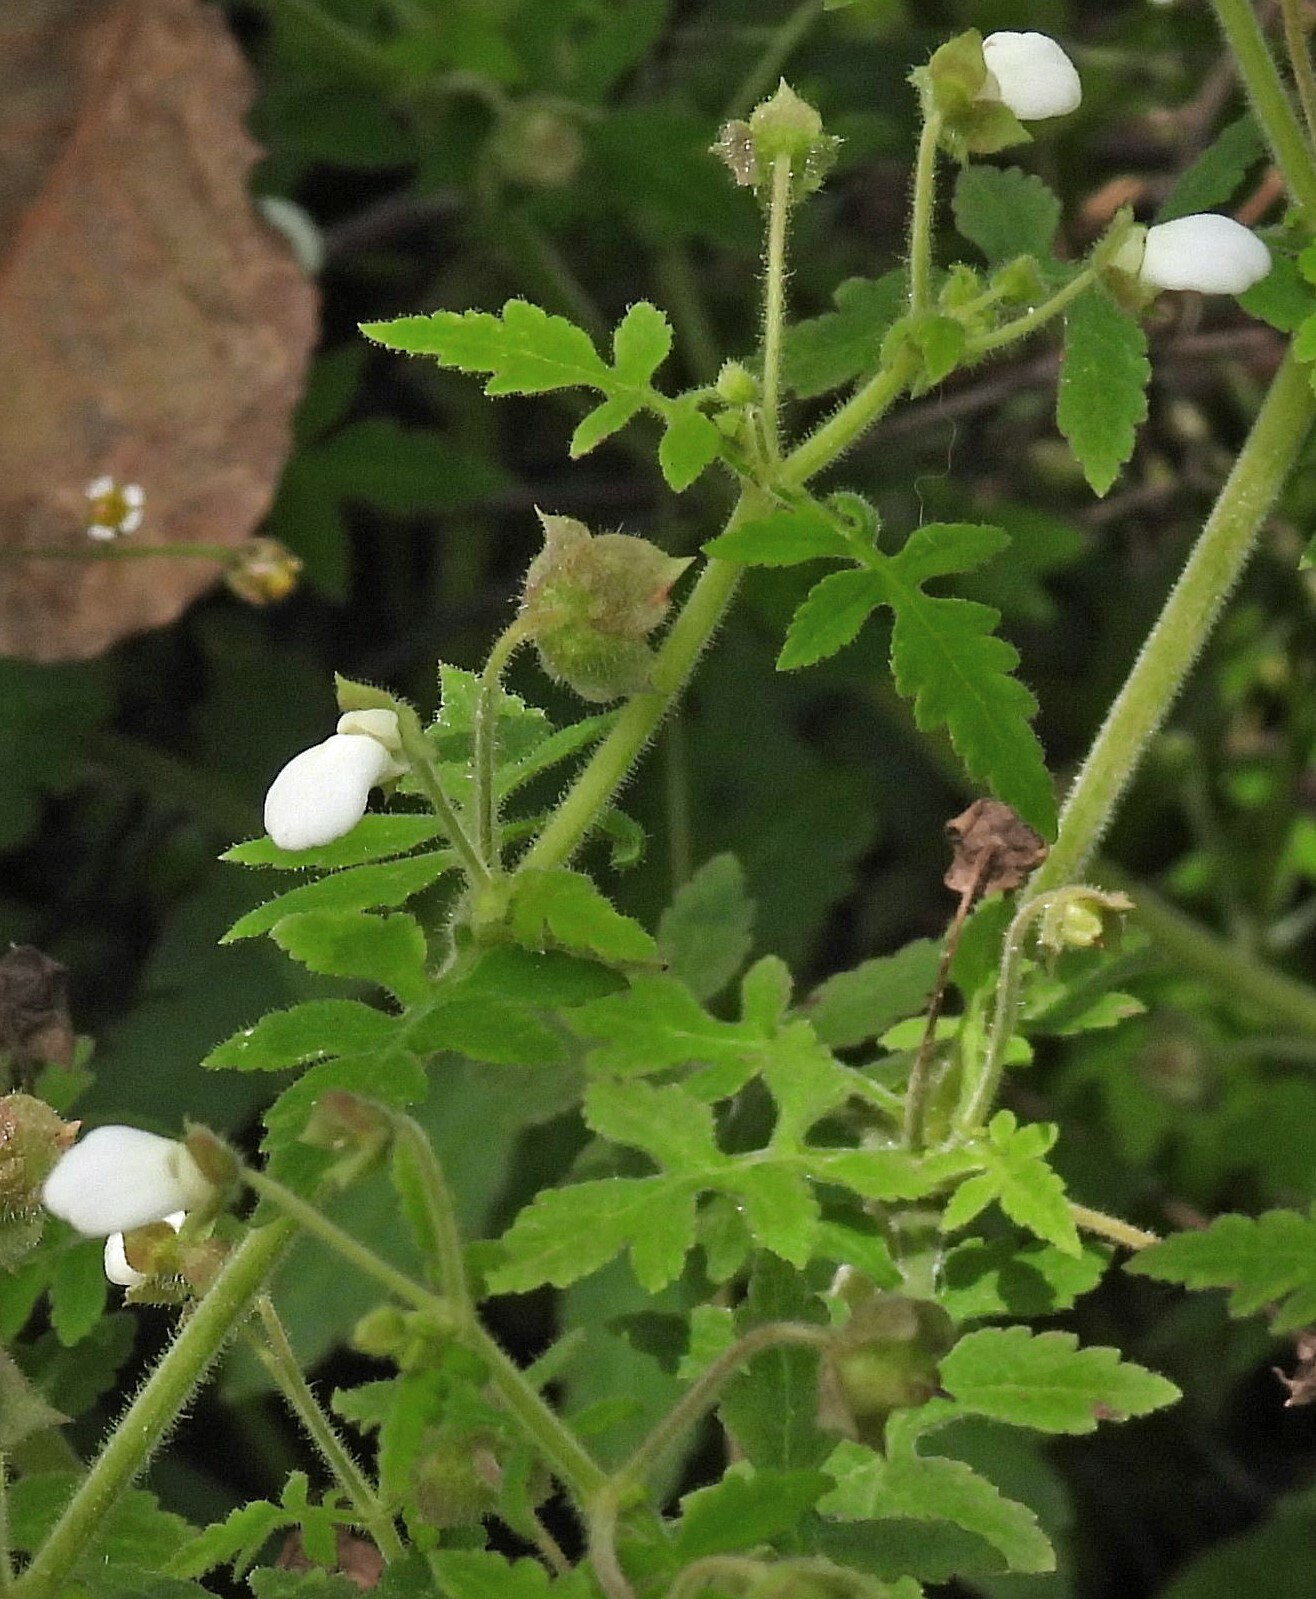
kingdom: Plantae
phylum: Tracheophyta
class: Magnoliopsida
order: Lamiales
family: Calceolariaceae
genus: Calceolaria
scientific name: Calceolaria chelidonioides
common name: Slipperwort
